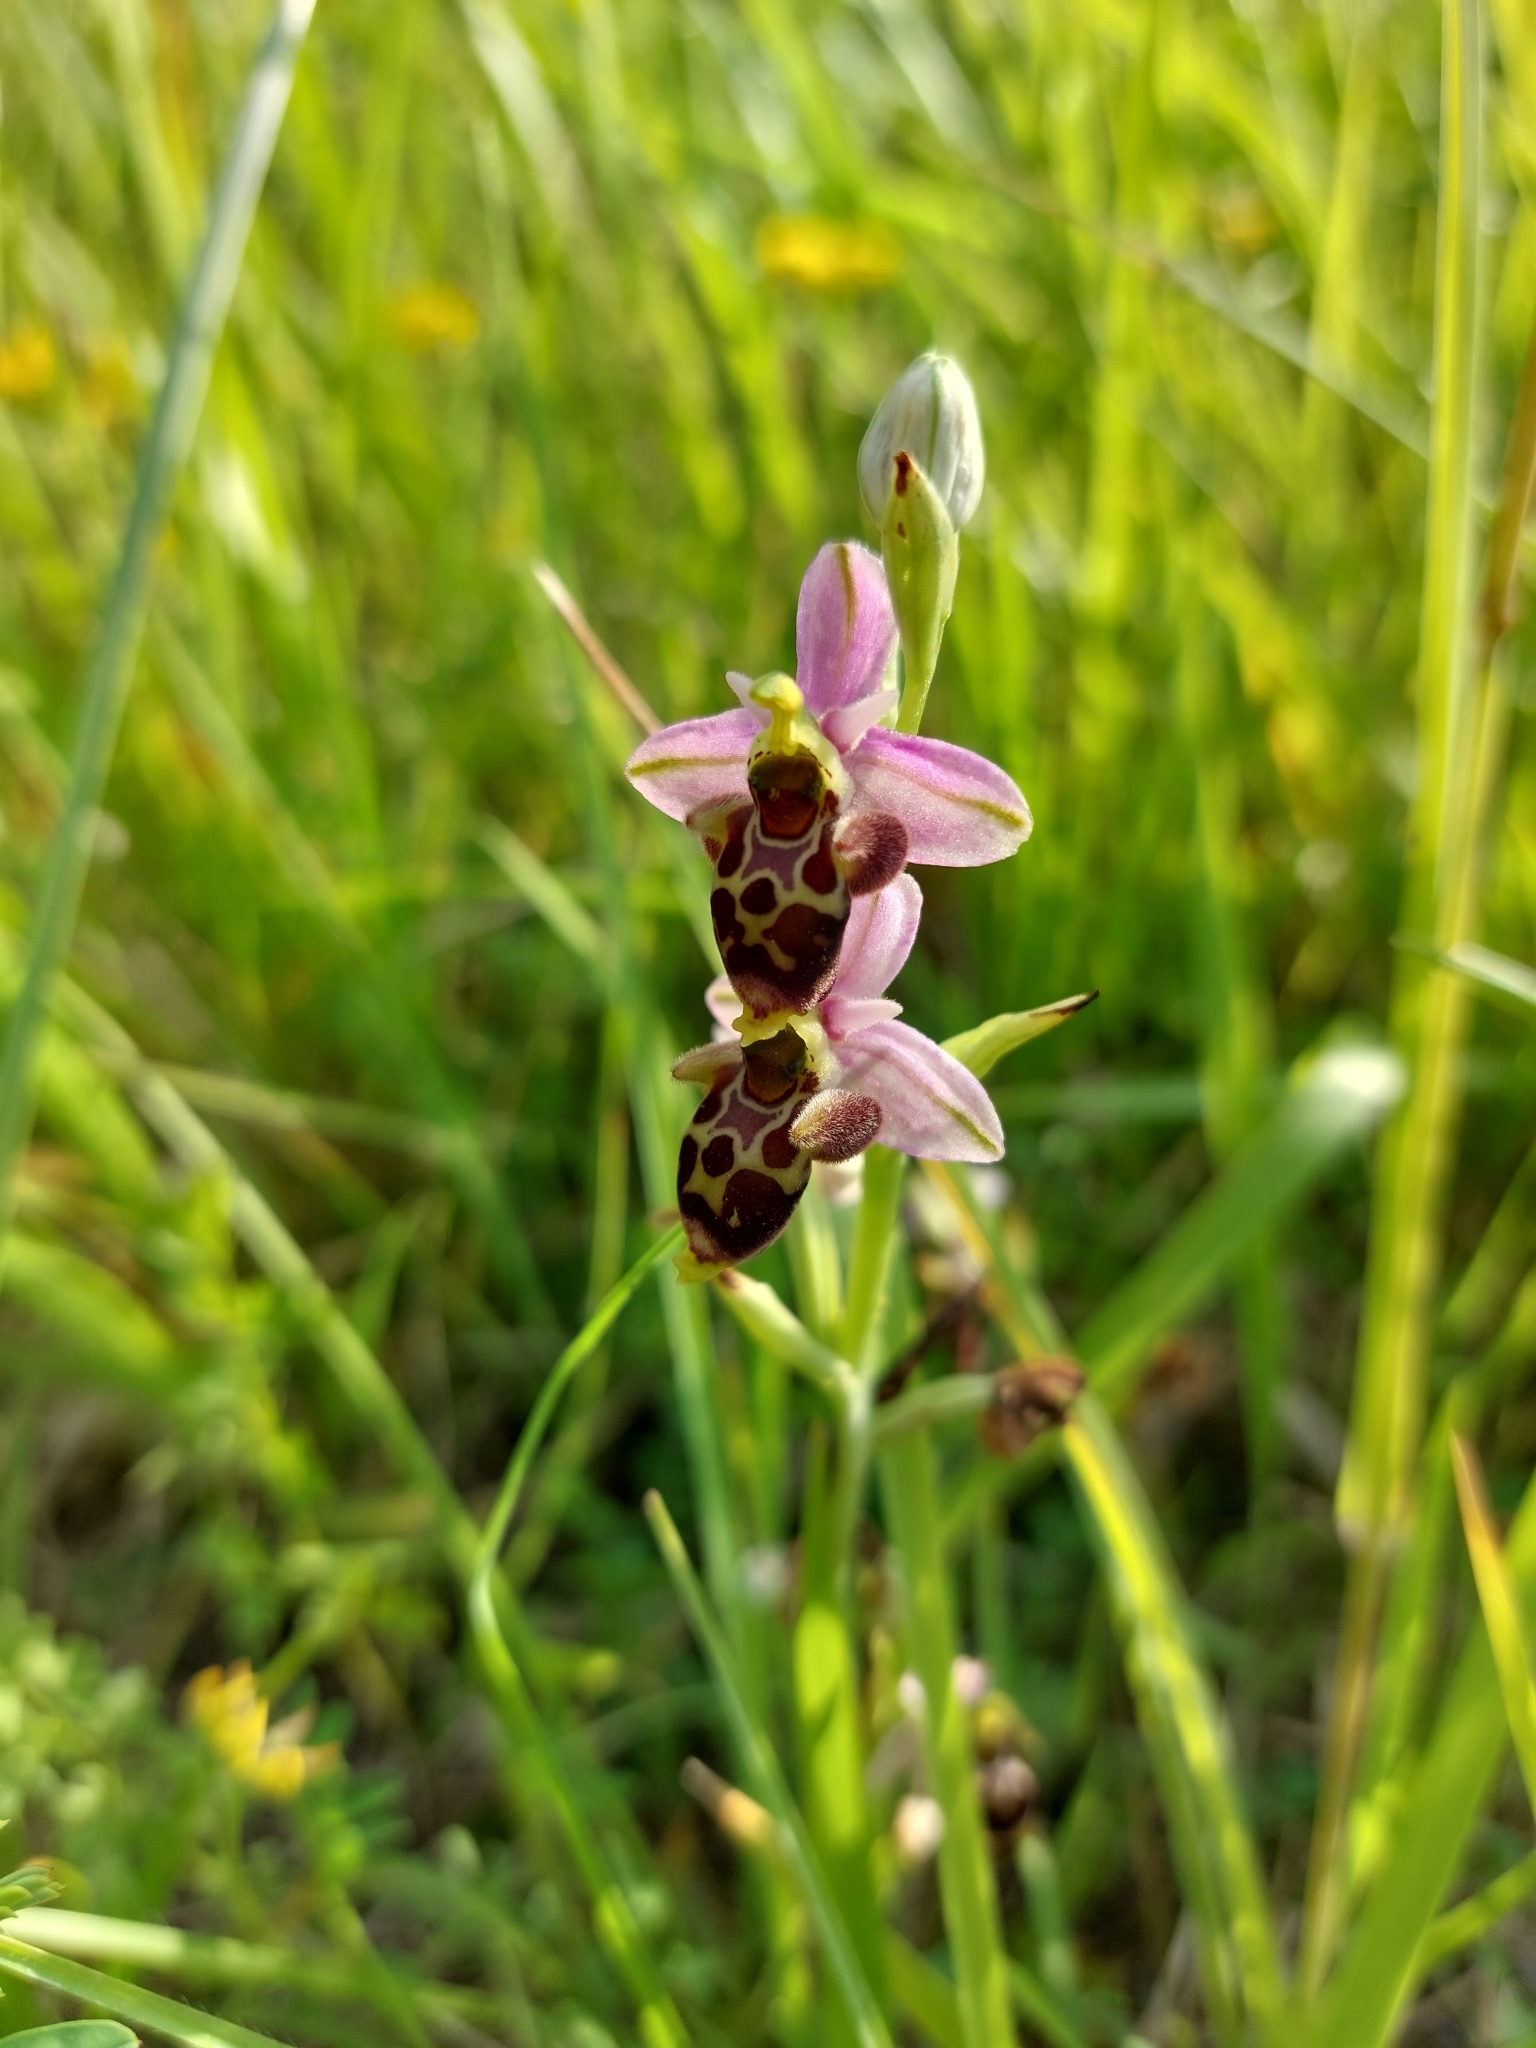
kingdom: Plantae
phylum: Tracheophyta
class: Liliopsida
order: Asparagales
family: Orchidaceae
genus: Ophrys
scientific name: Ophrys scolopax
